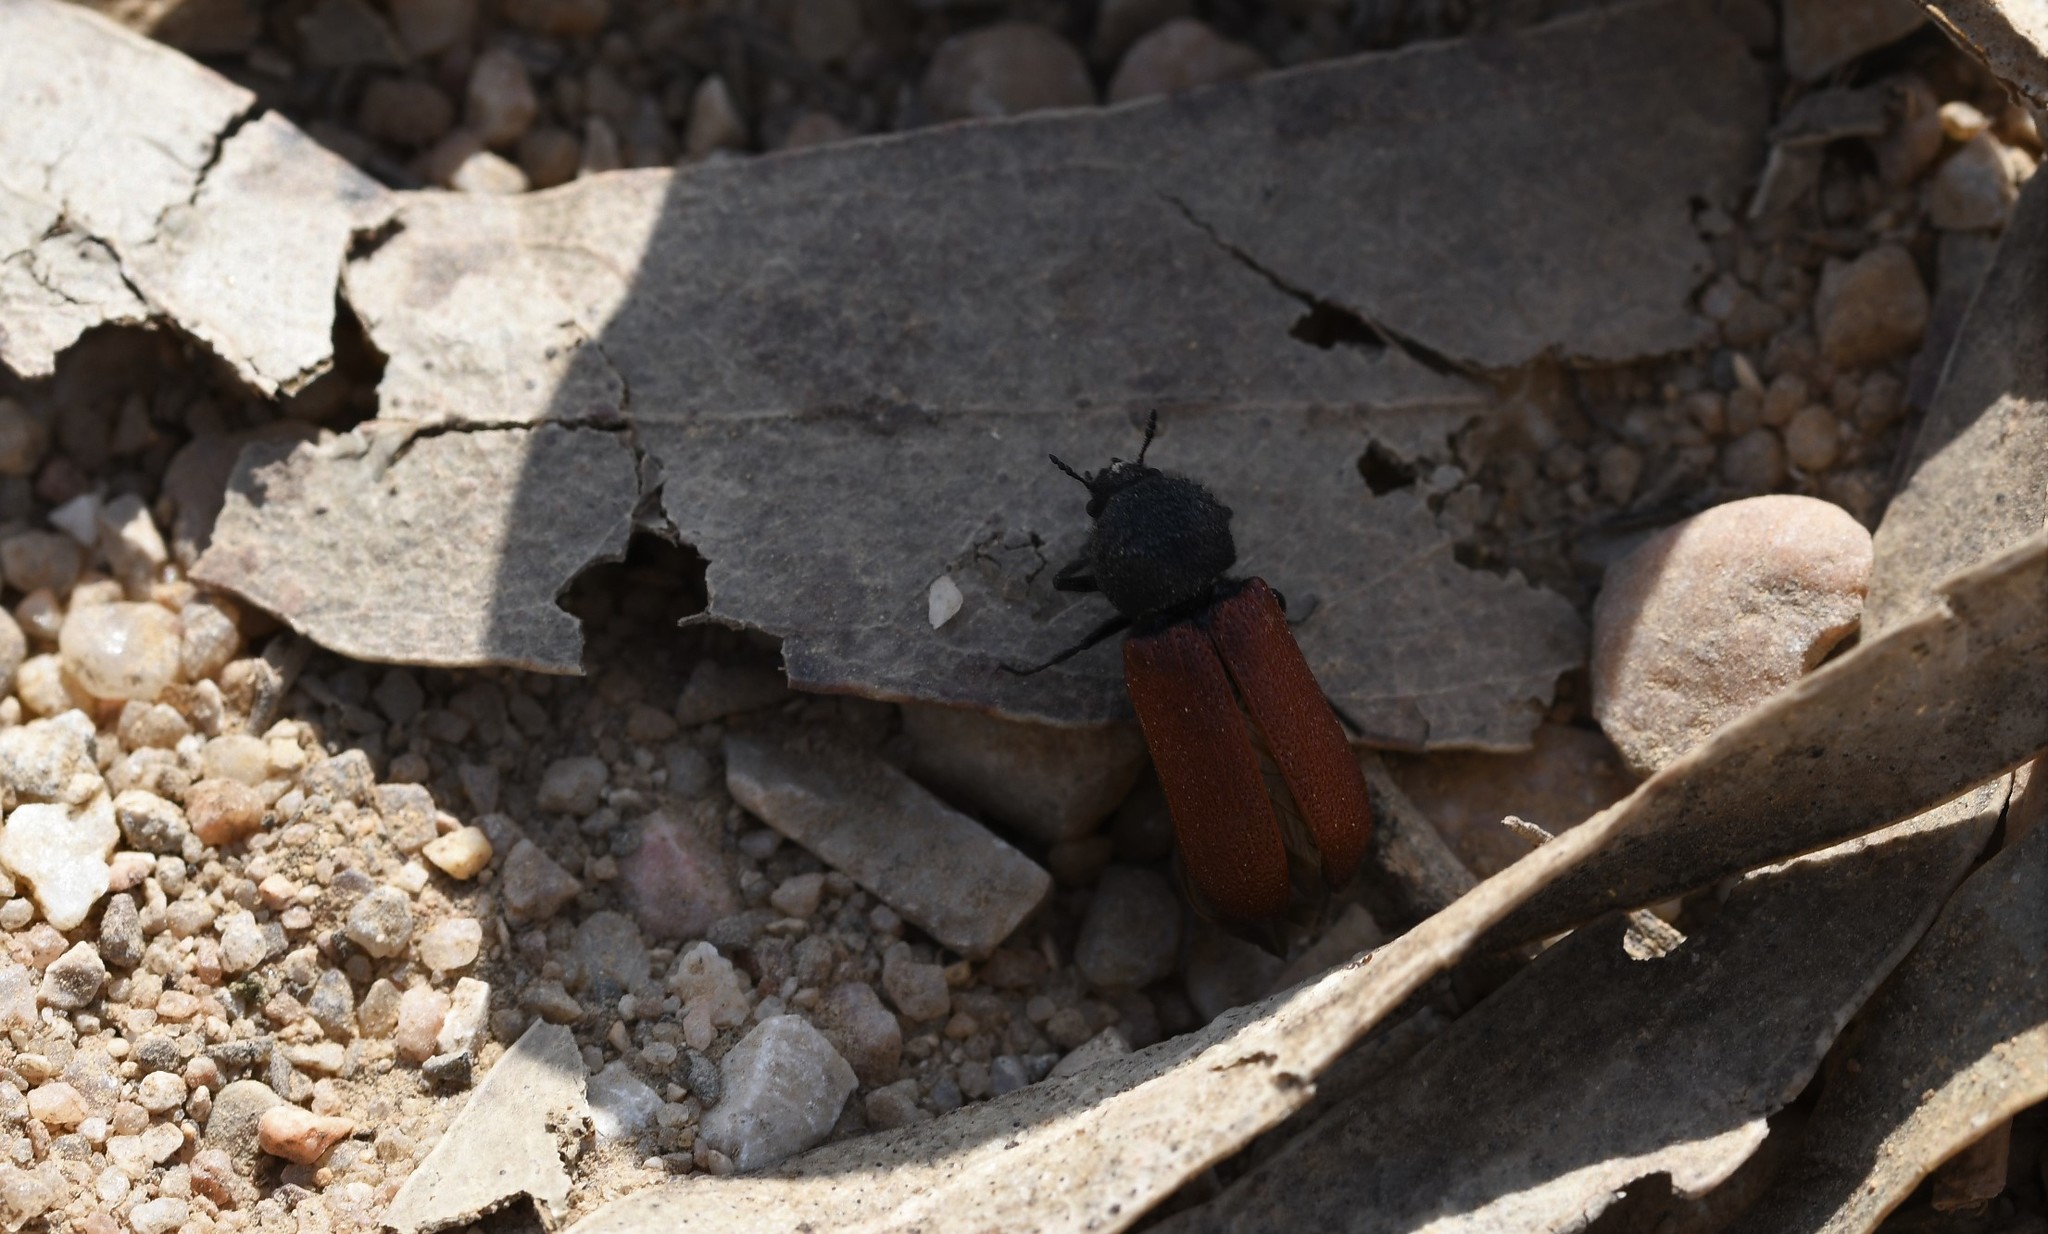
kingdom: Animalia
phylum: Arthropoda
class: Insecta
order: Coleoptera
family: Bostrichidae
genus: Bostrichus
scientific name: Bostrichus capucinus
